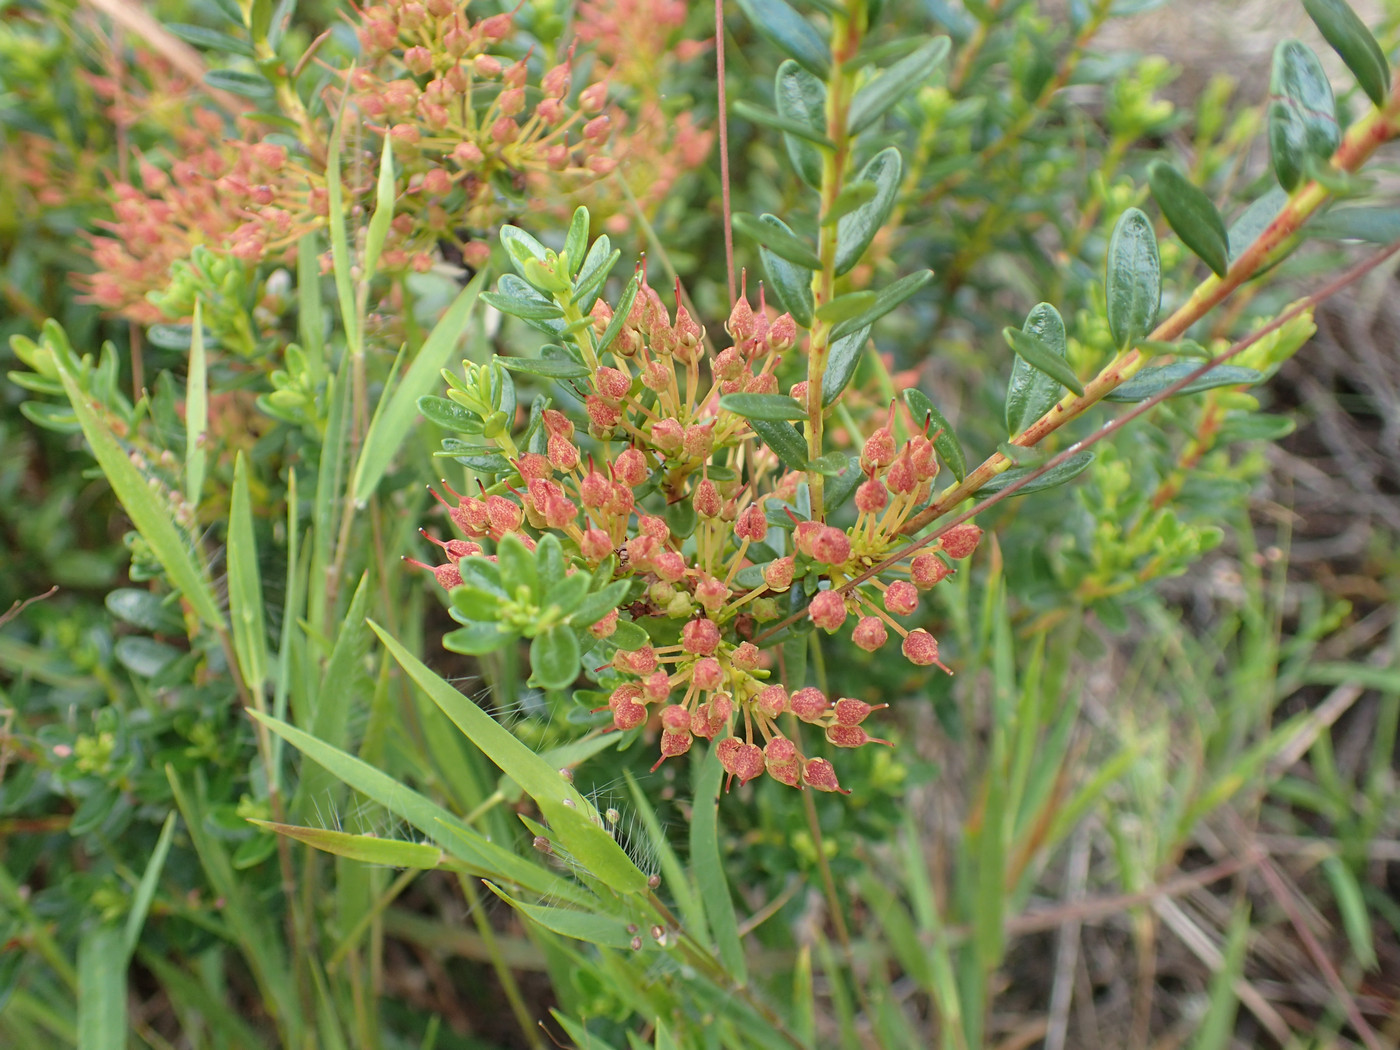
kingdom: Plantae
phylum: Tracheophyta
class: Magnoliopsida
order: Ericales
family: Ericaceae
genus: Kalmia
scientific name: Kalmia buxifolia
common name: Sandmyrtle
